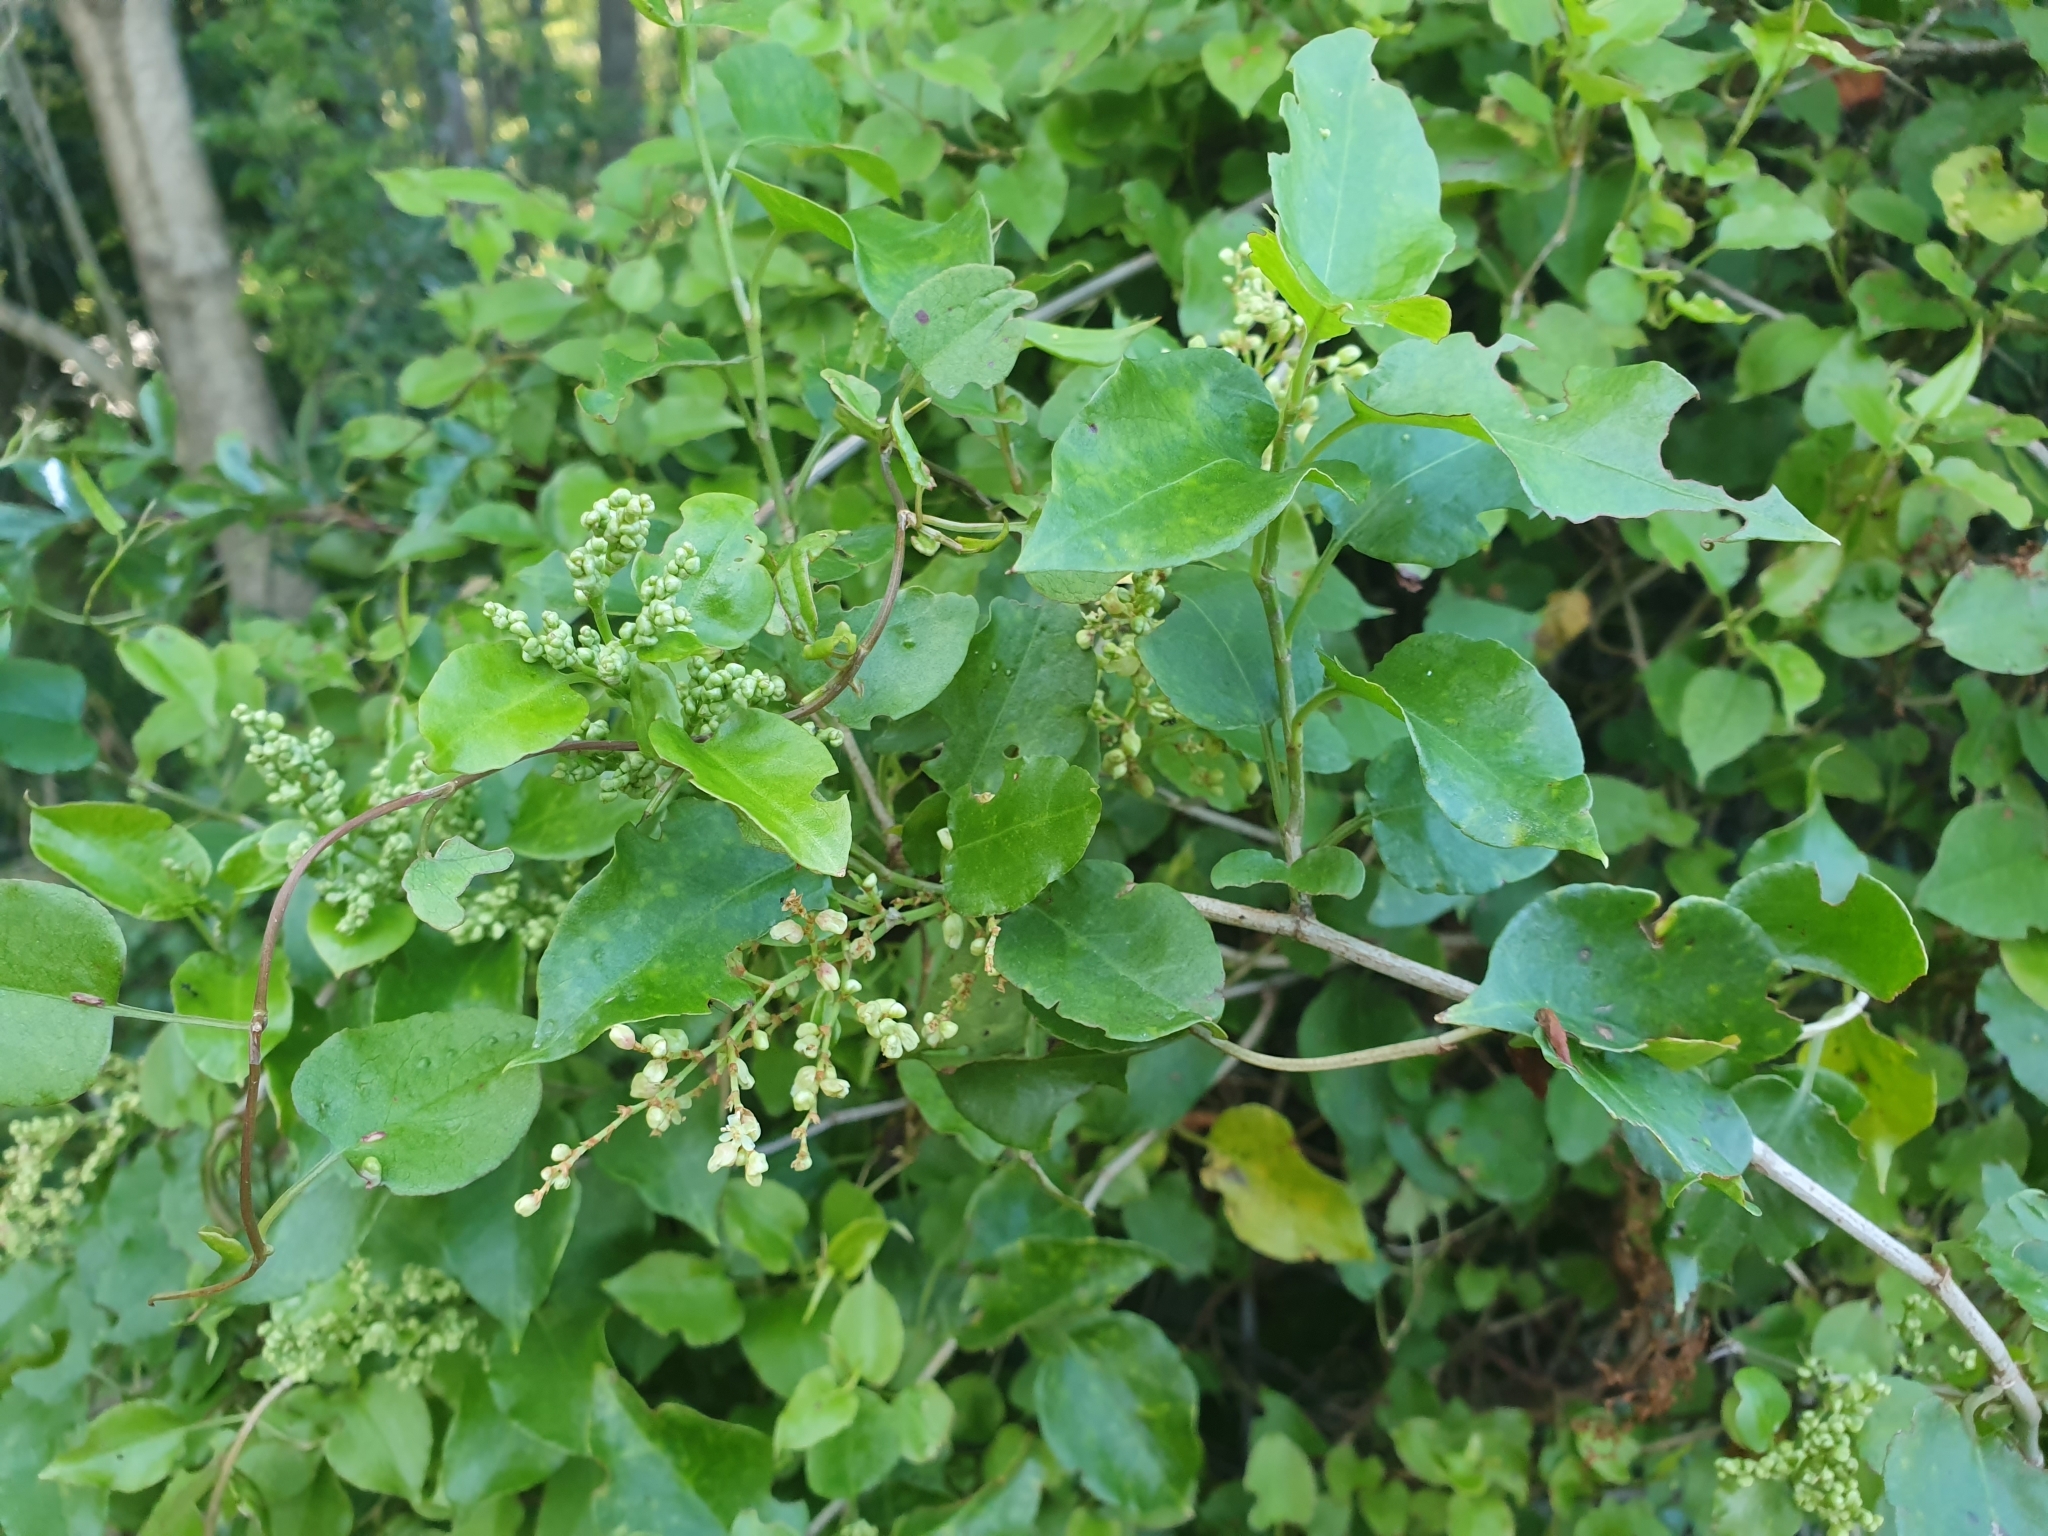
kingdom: Plantae
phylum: Tracheophyta
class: Magnoliopsida
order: Caryophyllales
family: Polygonaceae
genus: Muehlenbeckia
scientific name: Muehlenbeckia australis
